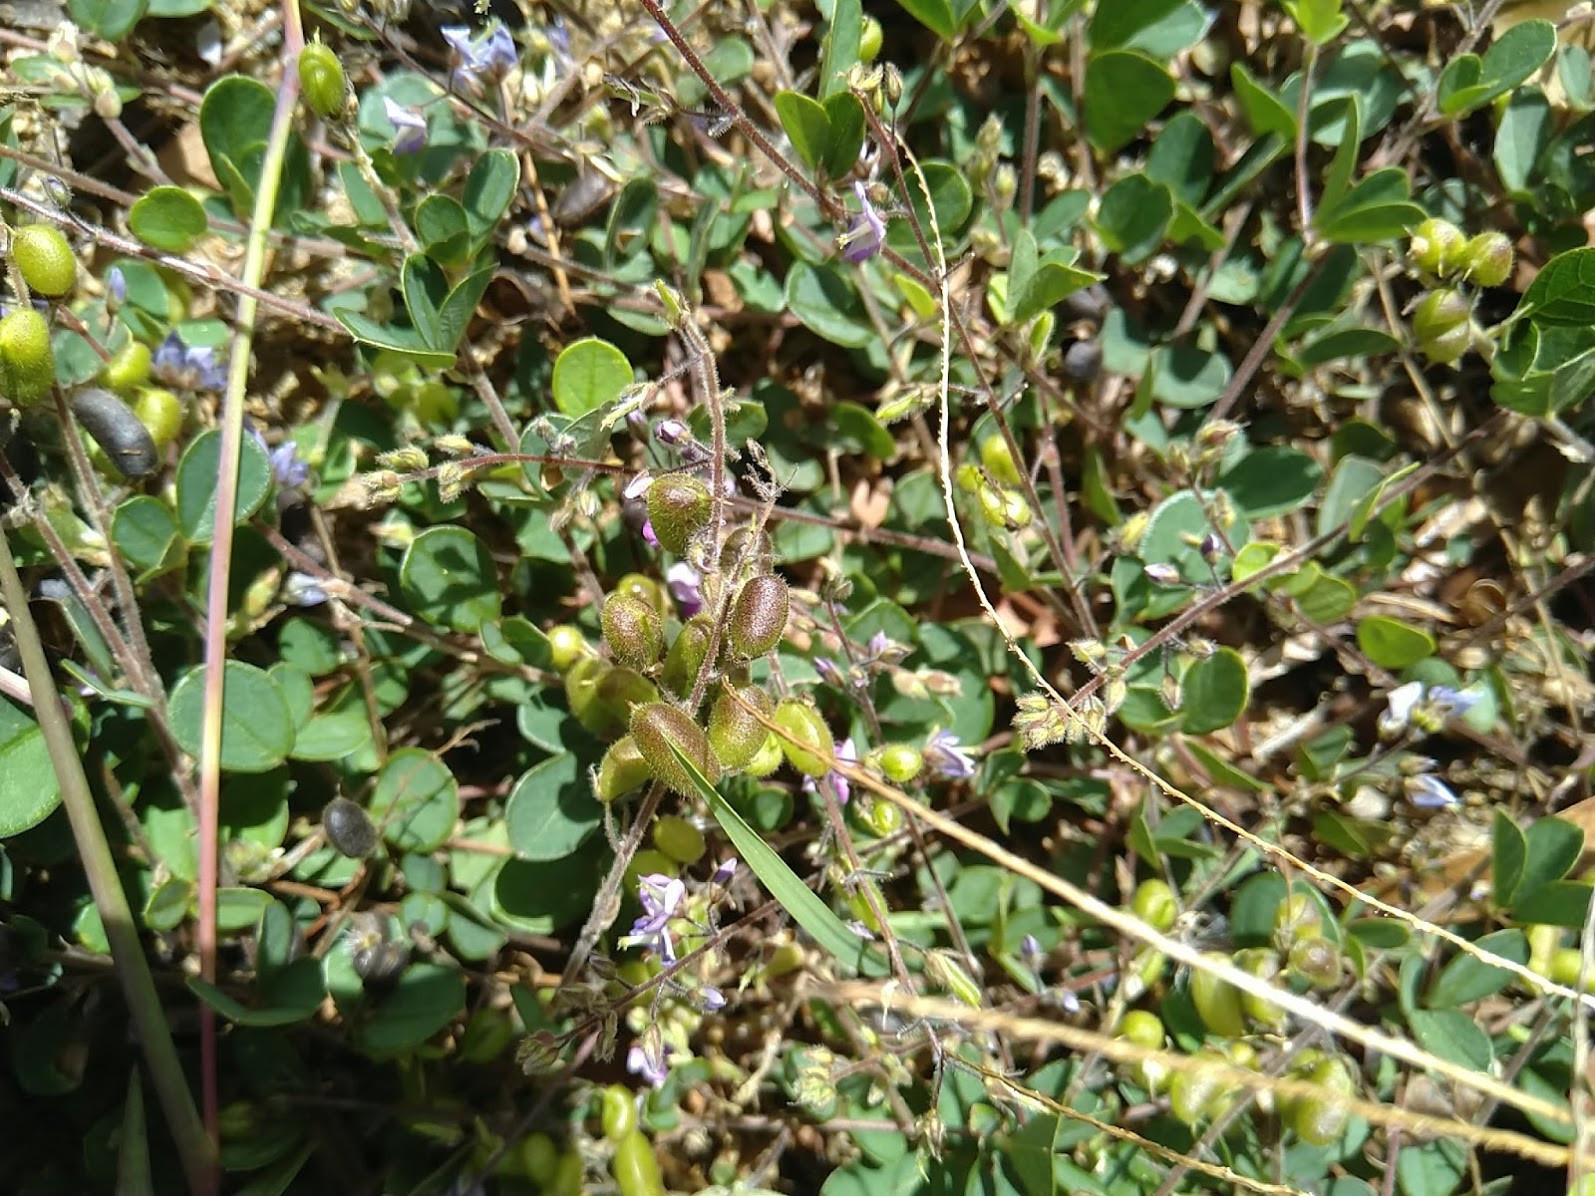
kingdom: Plantae
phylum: Tracheophyta
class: Magnoliopsida
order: Fabales
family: Fabaceae
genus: Pycnospora
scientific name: Pycnospora lutescens
